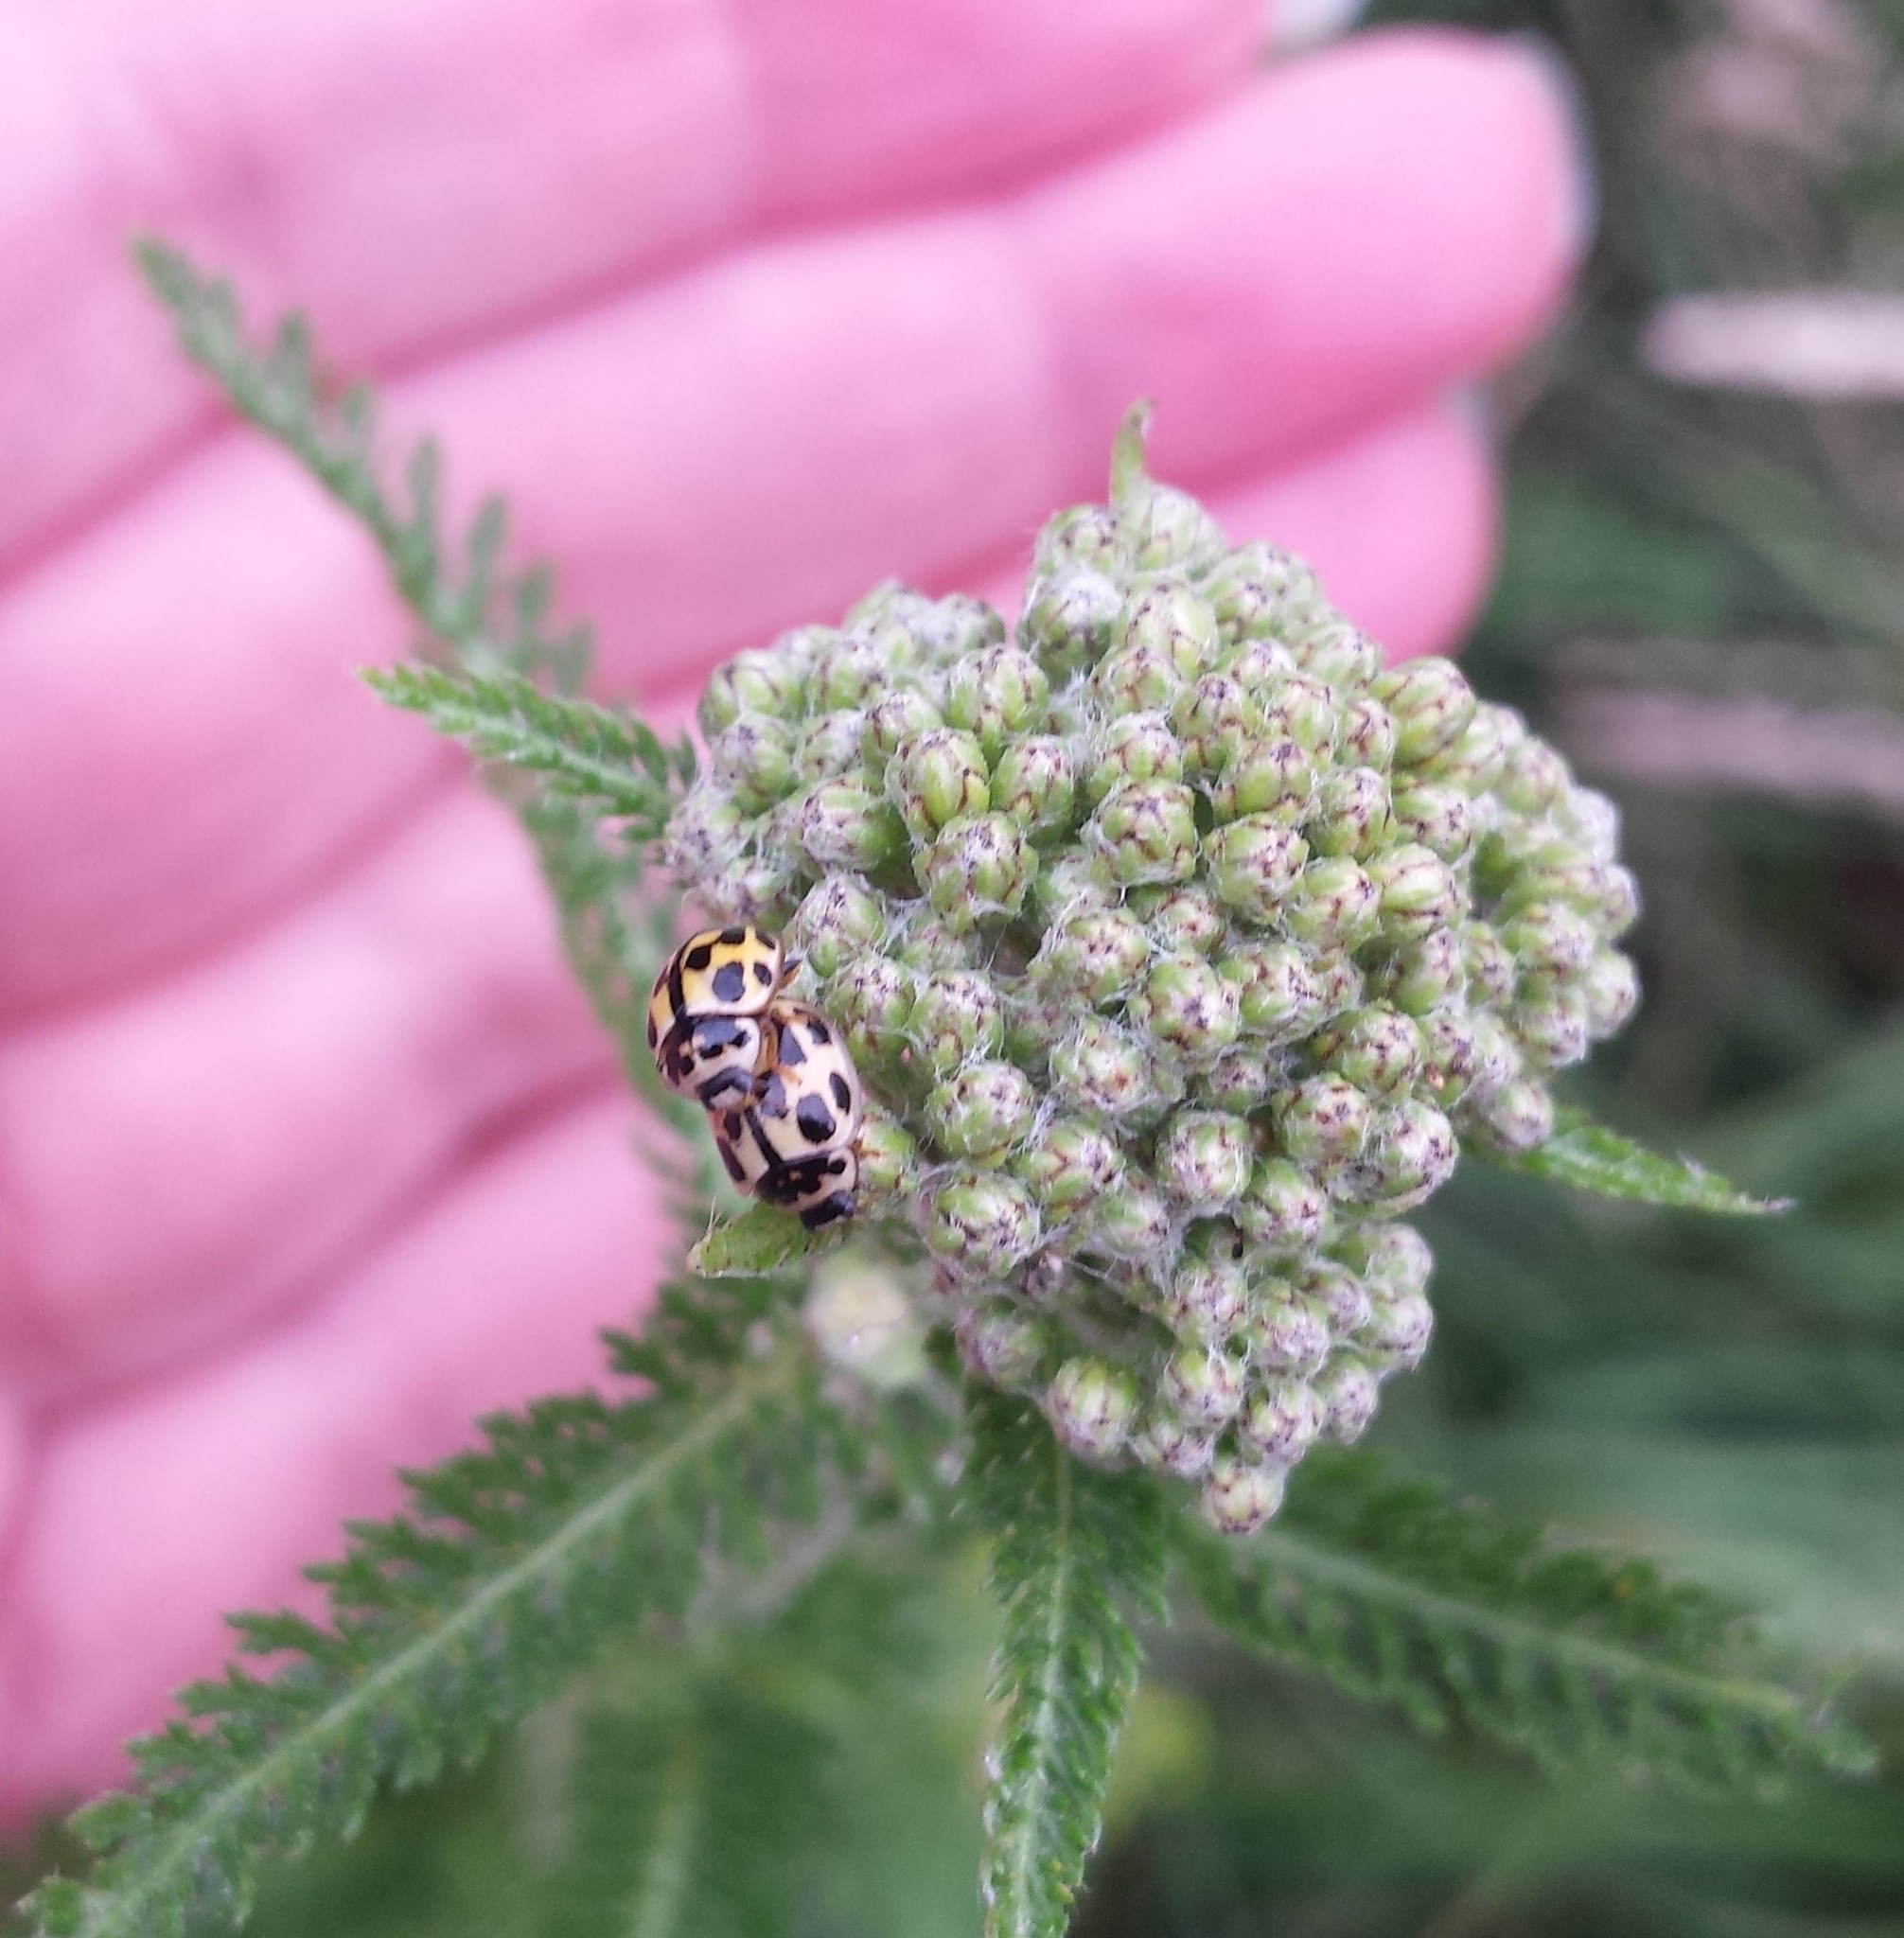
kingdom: Animalia
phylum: Arthropoda
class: Insecta
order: Coleoptera
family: Coccinellidae
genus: Propylaea
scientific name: Propylaea quatuordecimpunctata
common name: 14-spotted ladybird beetle
